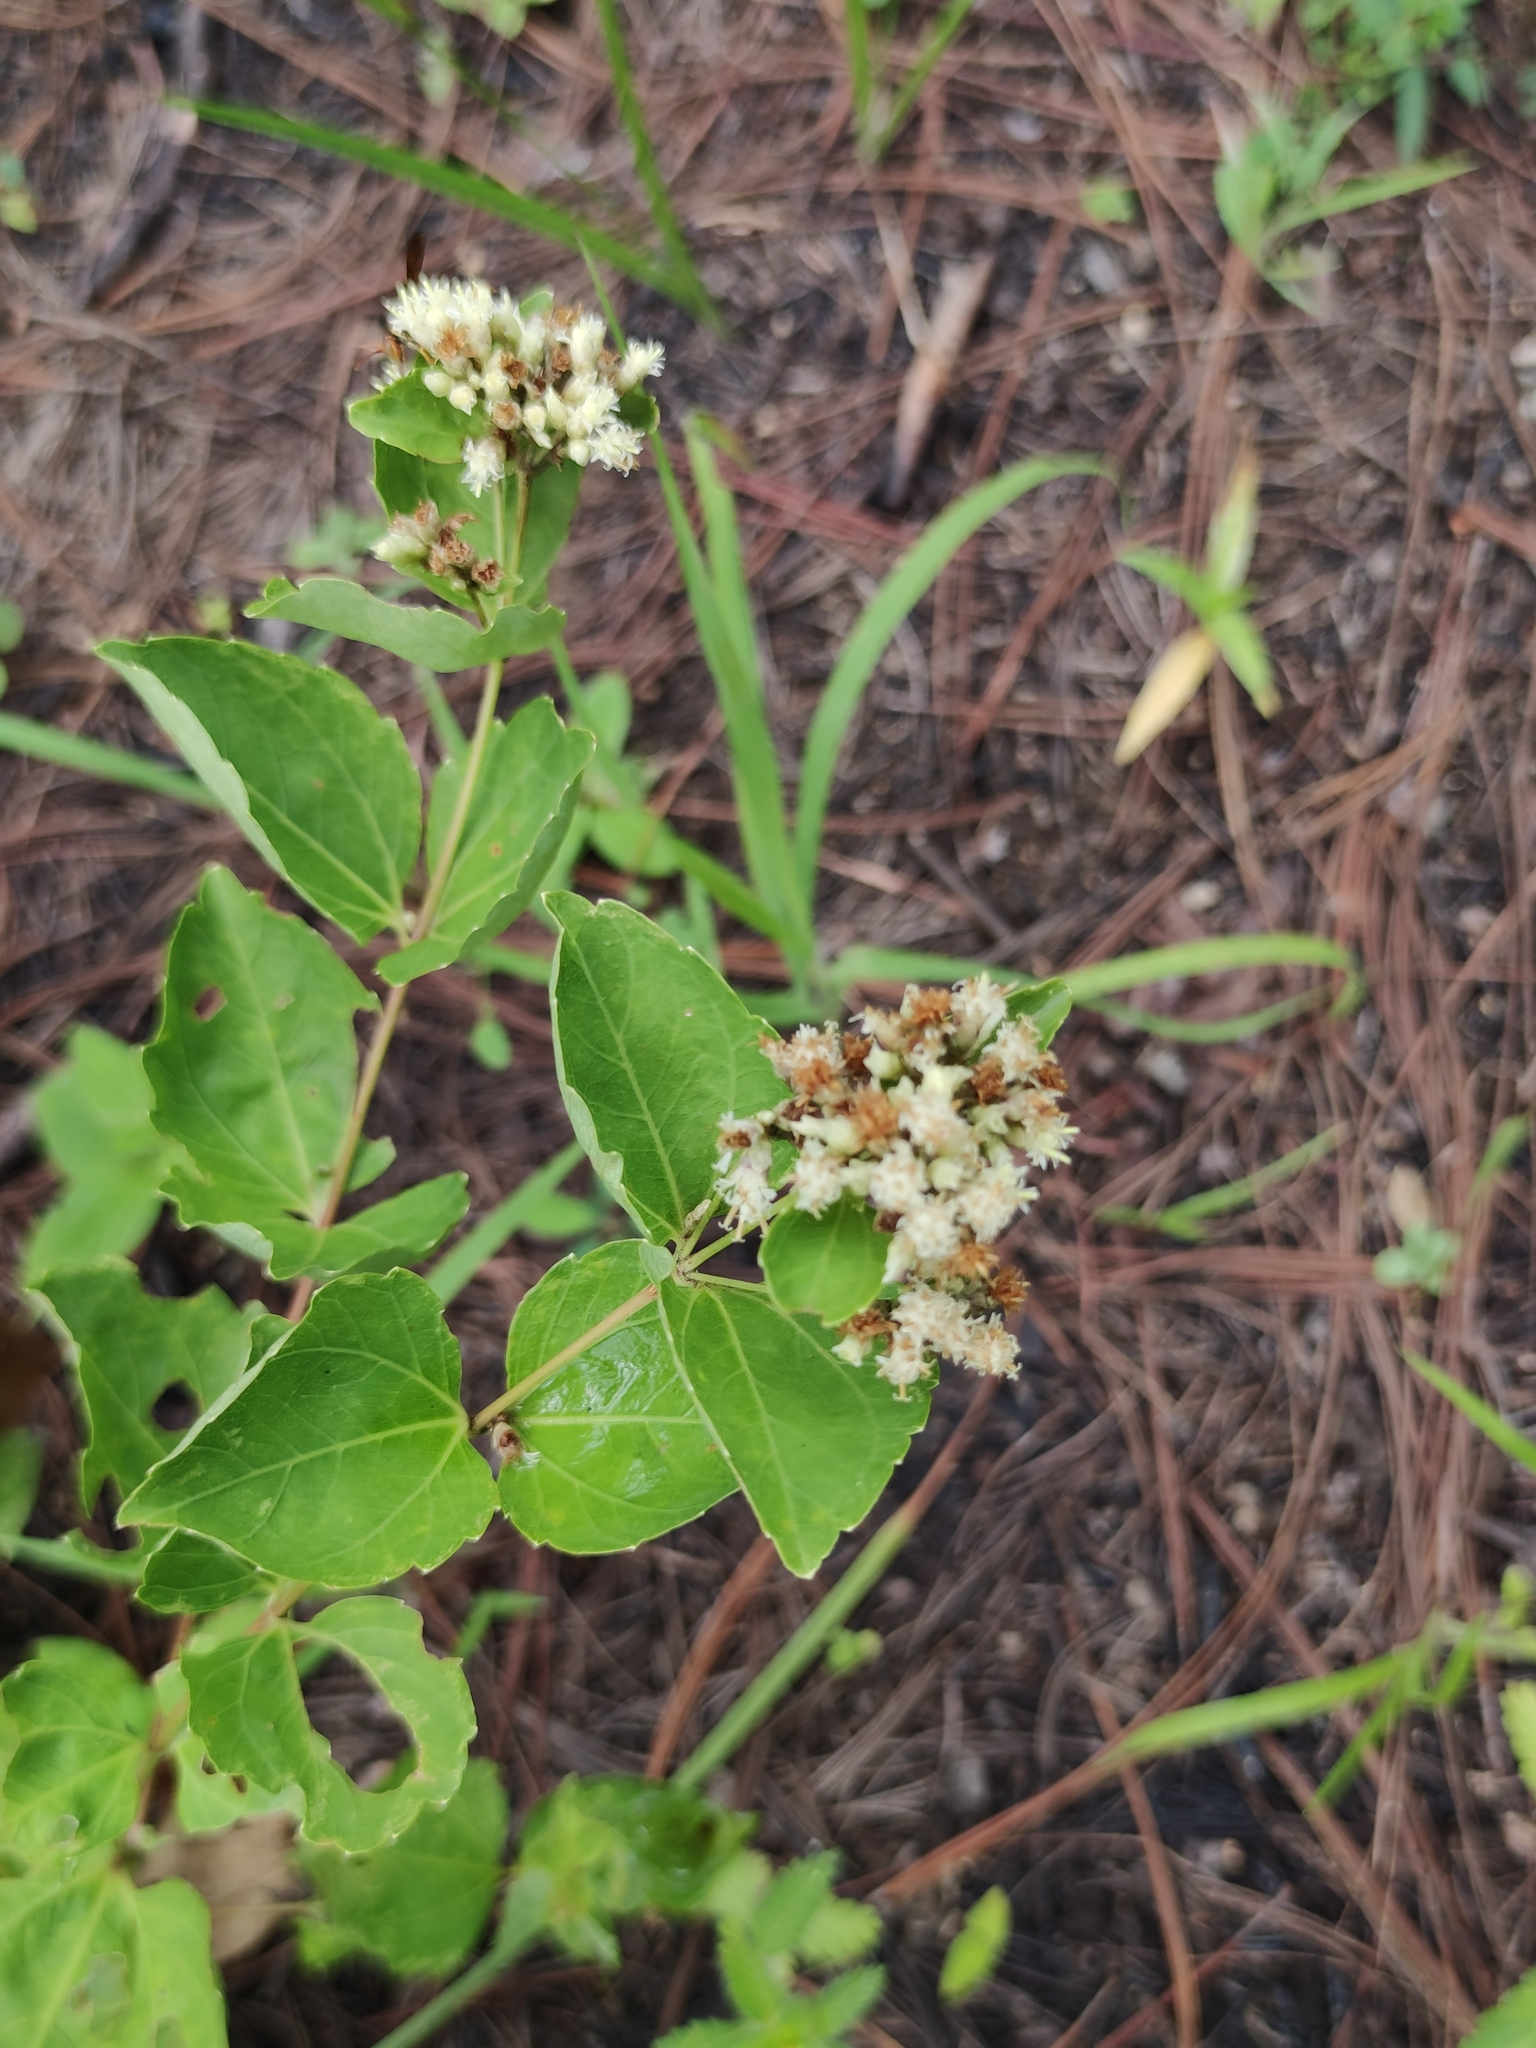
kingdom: Plantae
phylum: Tracheophyta
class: Magnoliopsida
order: Asterales
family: Asteraceae
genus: Calea
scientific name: Calea ternifolia
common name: Mexican calea
